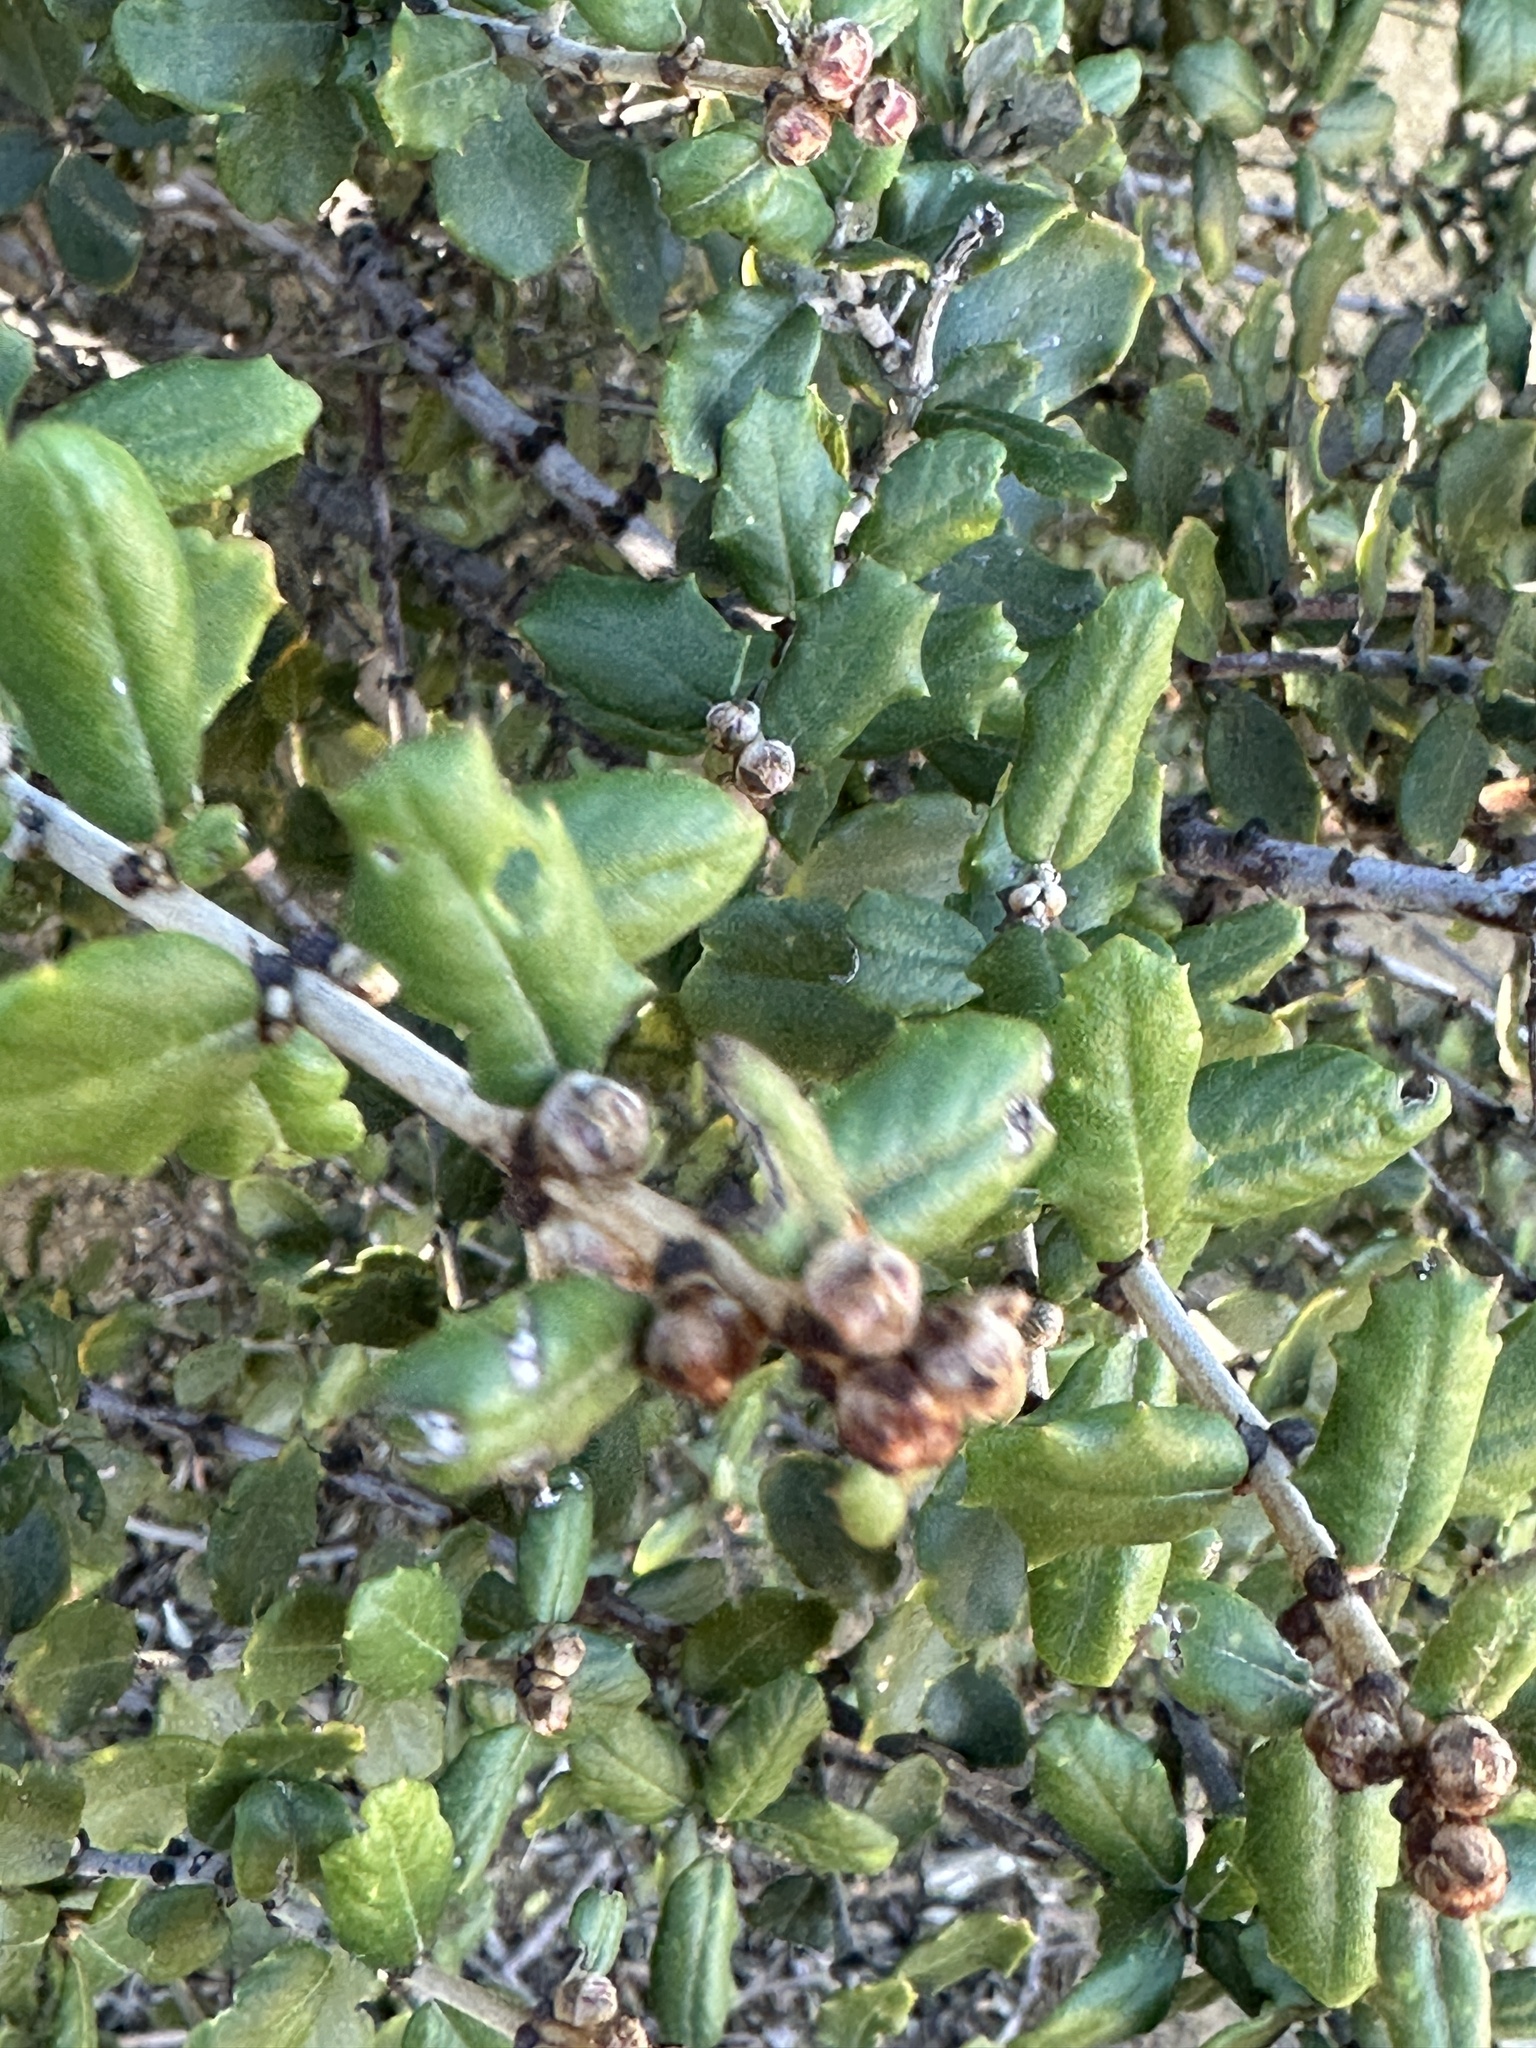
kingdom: Plantae
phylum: Tracheophyta
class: Magnoliopsida
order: Rosales
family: Rhamnaceae
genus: Ceanothus
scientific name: Ceanothus crassifolius
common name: Hoaryleaf ceanothus
